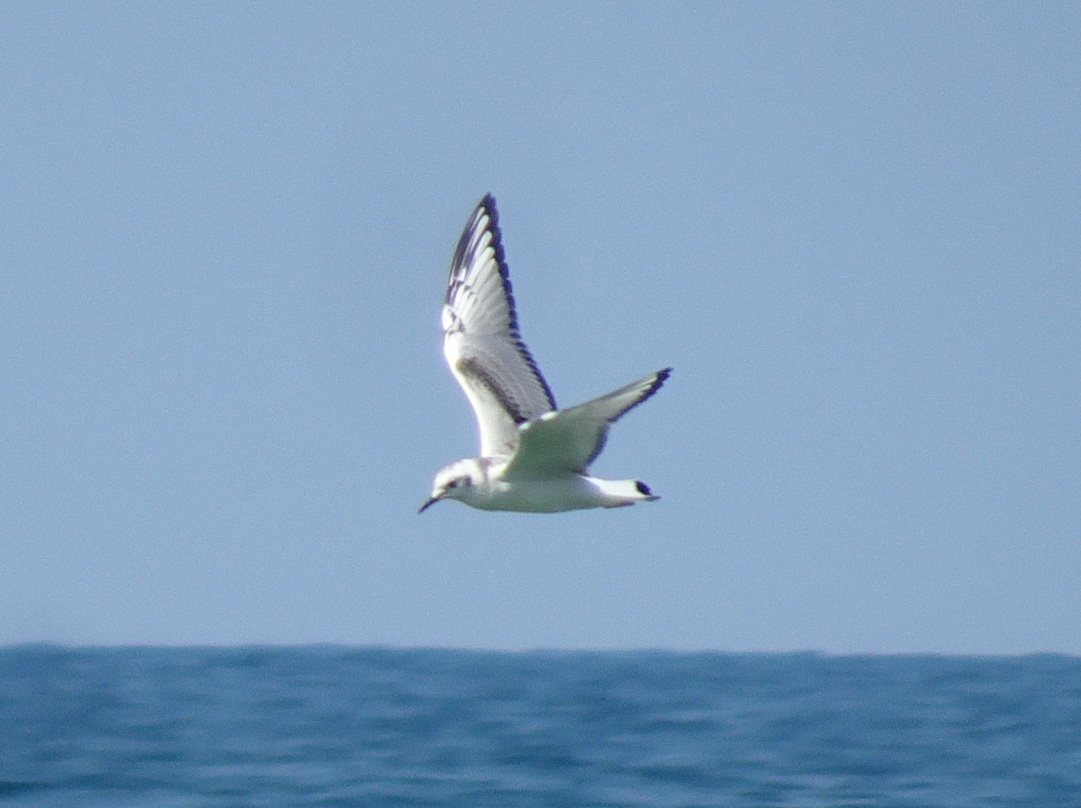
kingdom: Animalia
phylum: Chordata
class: Aves
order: Charadriiformes
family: Laridae
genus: Chroicocephalus
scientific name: Chroicocephalus philadelphia
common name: Bonaparte's gull
